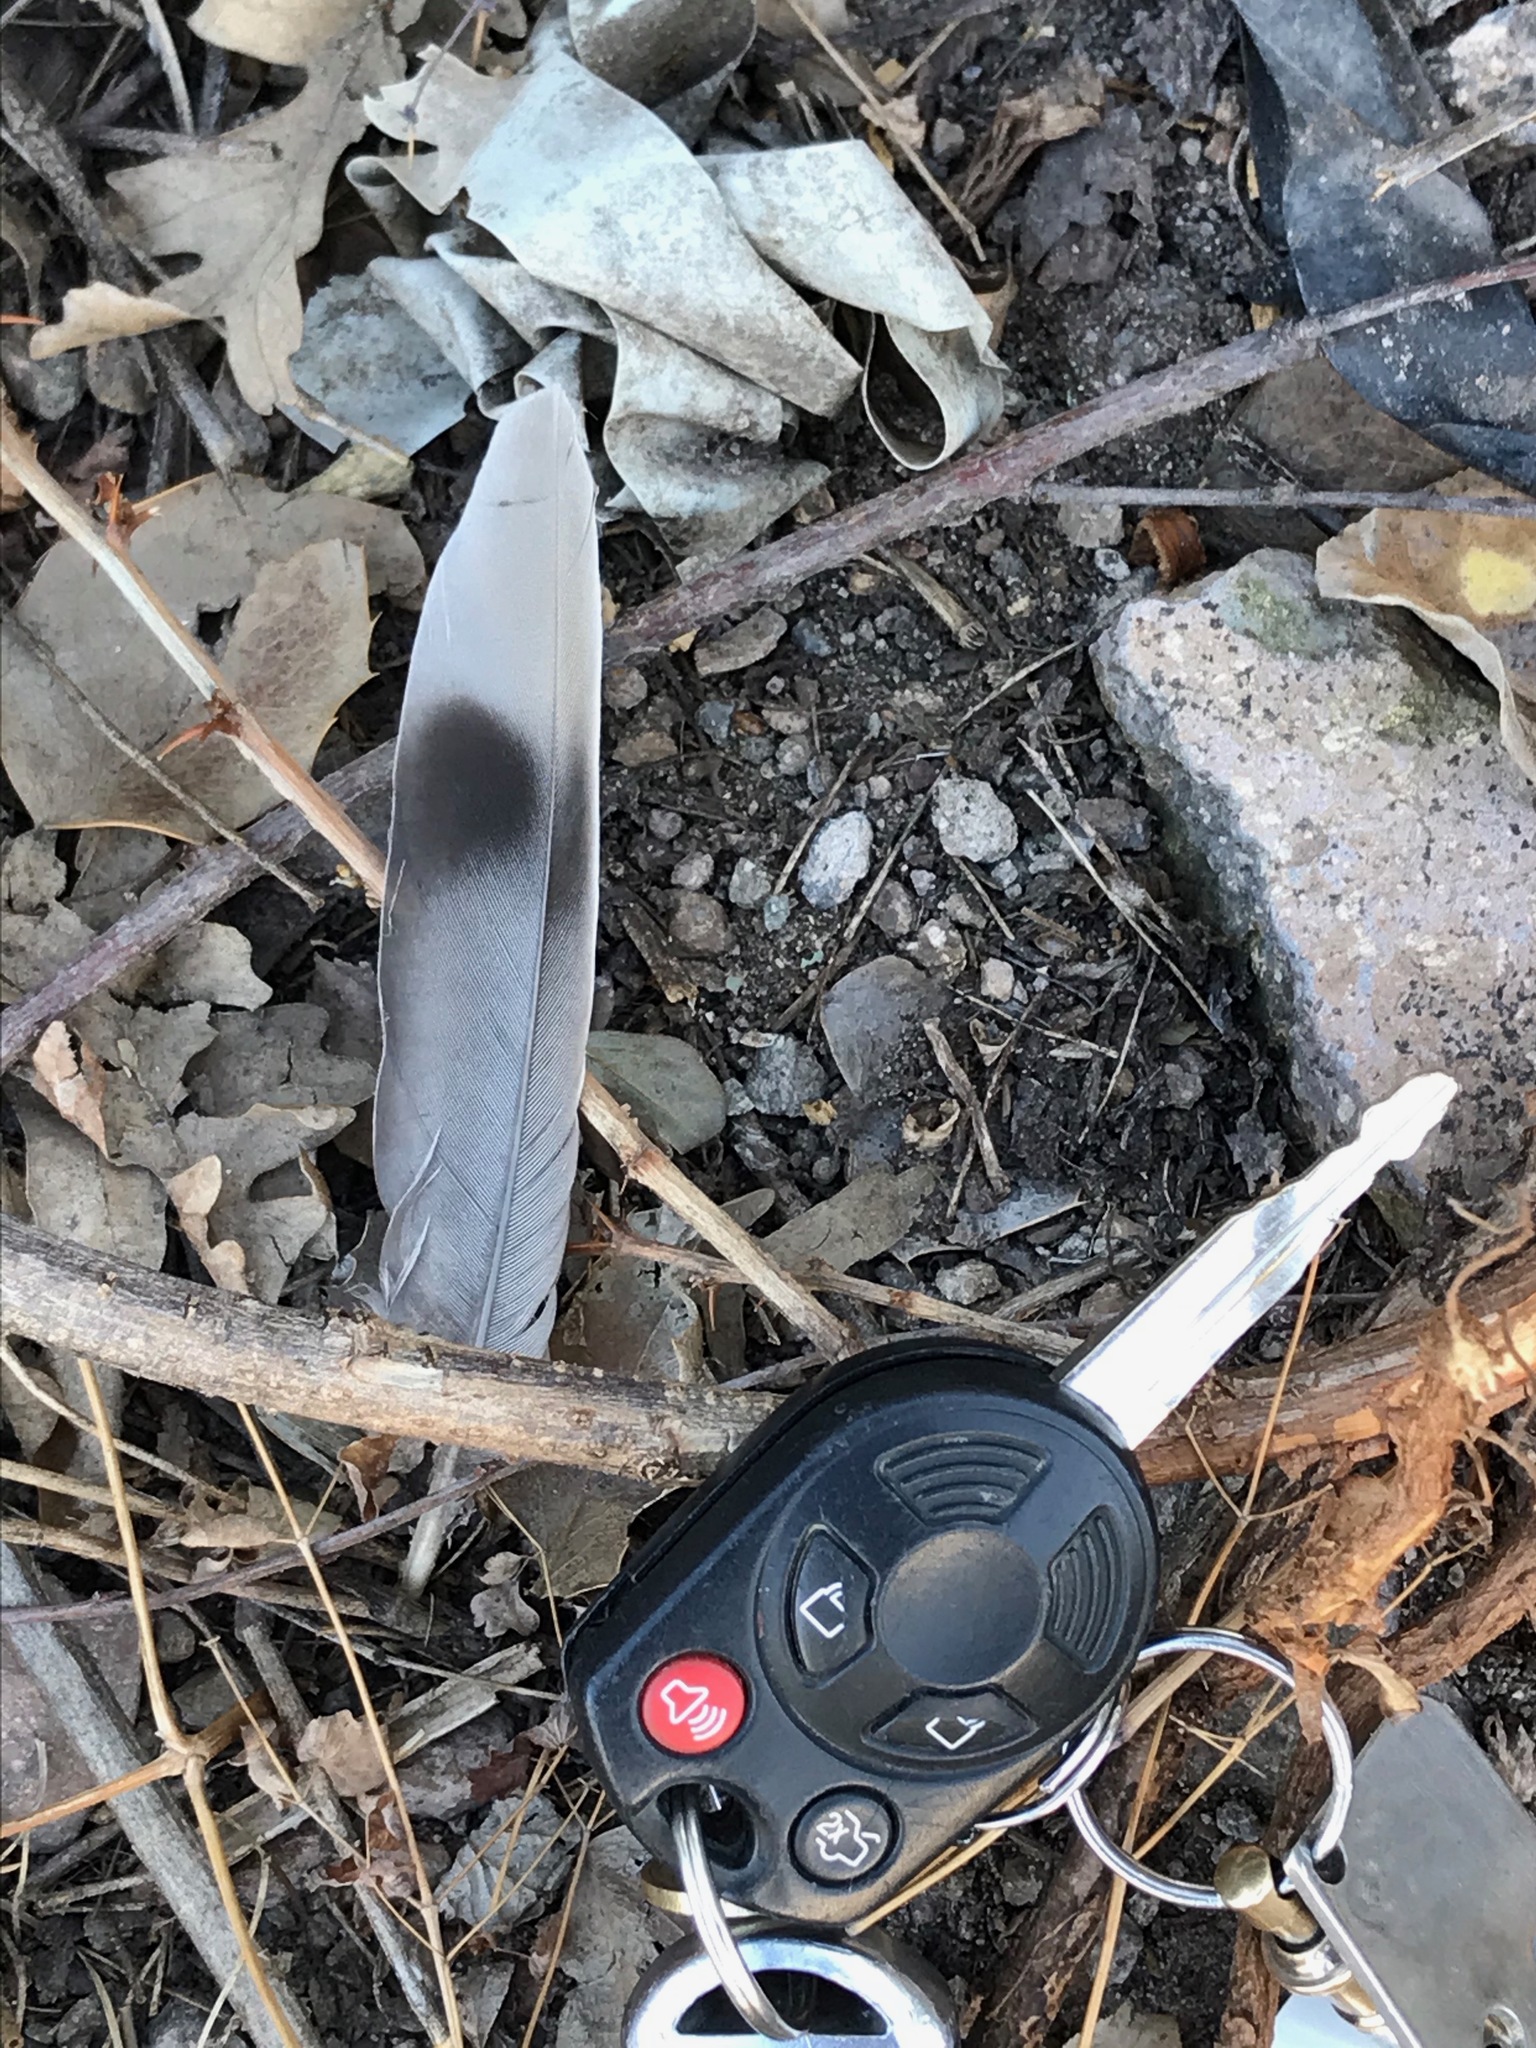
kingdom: Animalia
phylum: Chordata
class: Aves
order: Columbiformes
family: Columbidae
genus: Patagioenas
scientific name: Patagioenas fasciata
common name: Band-tailed pigeon
